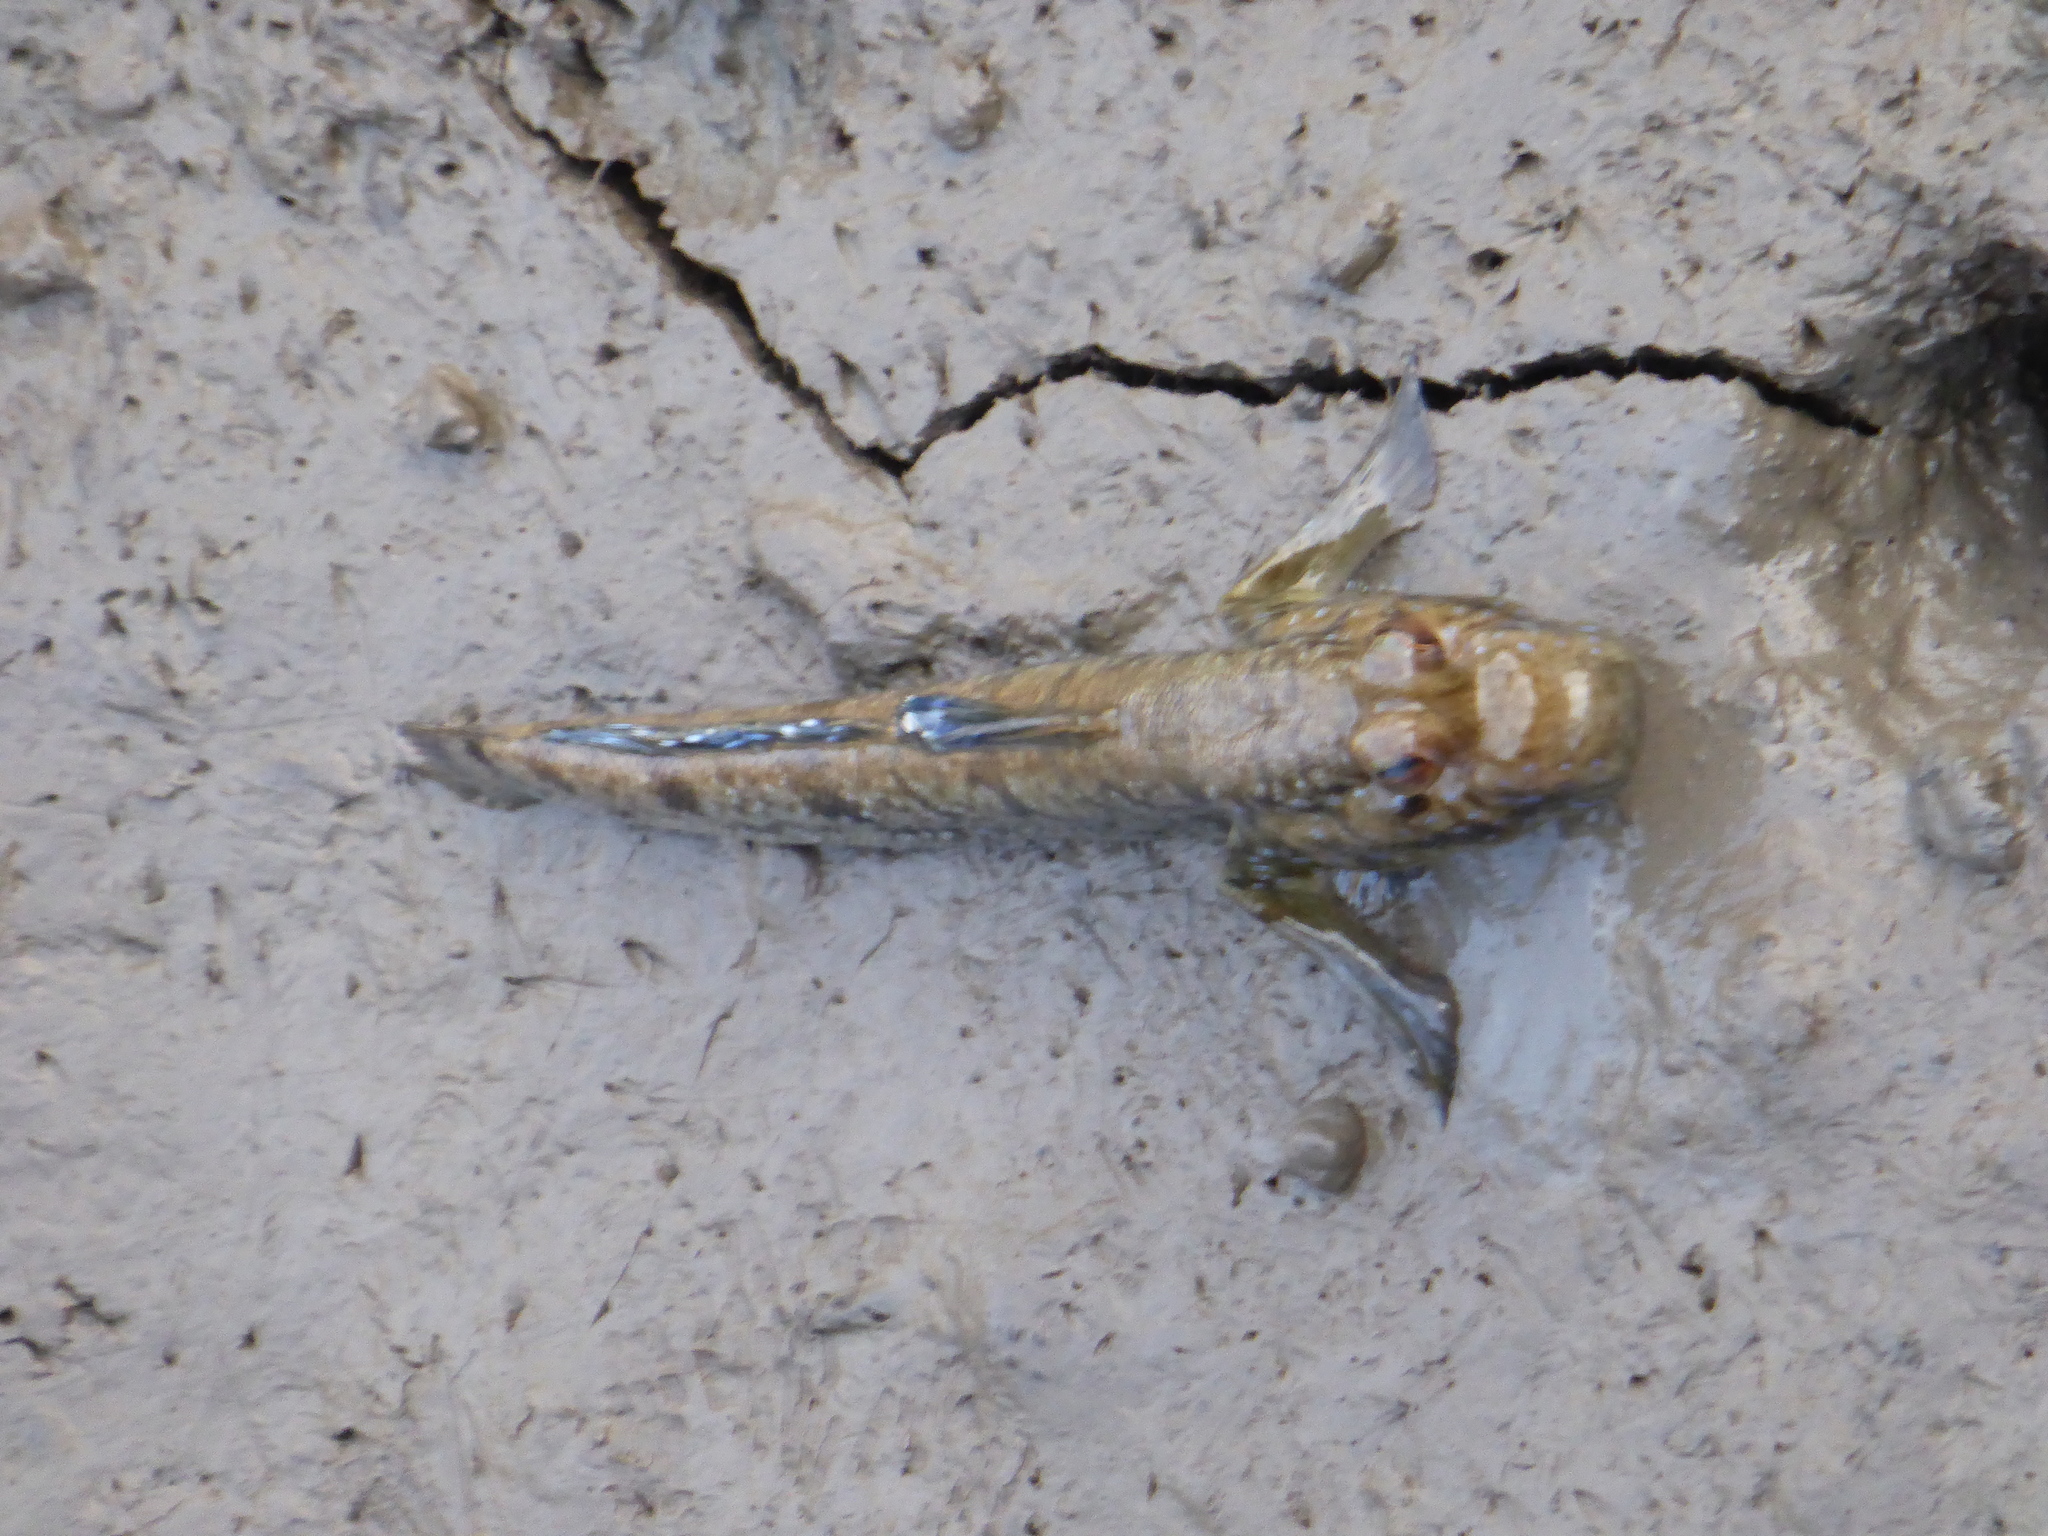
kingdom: Animalia
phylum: Chordata
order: Perciformes
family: Gobiidae
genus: Periophthalmus
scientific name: Periophthalmus barbarus
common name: Atlantic mudskipper
